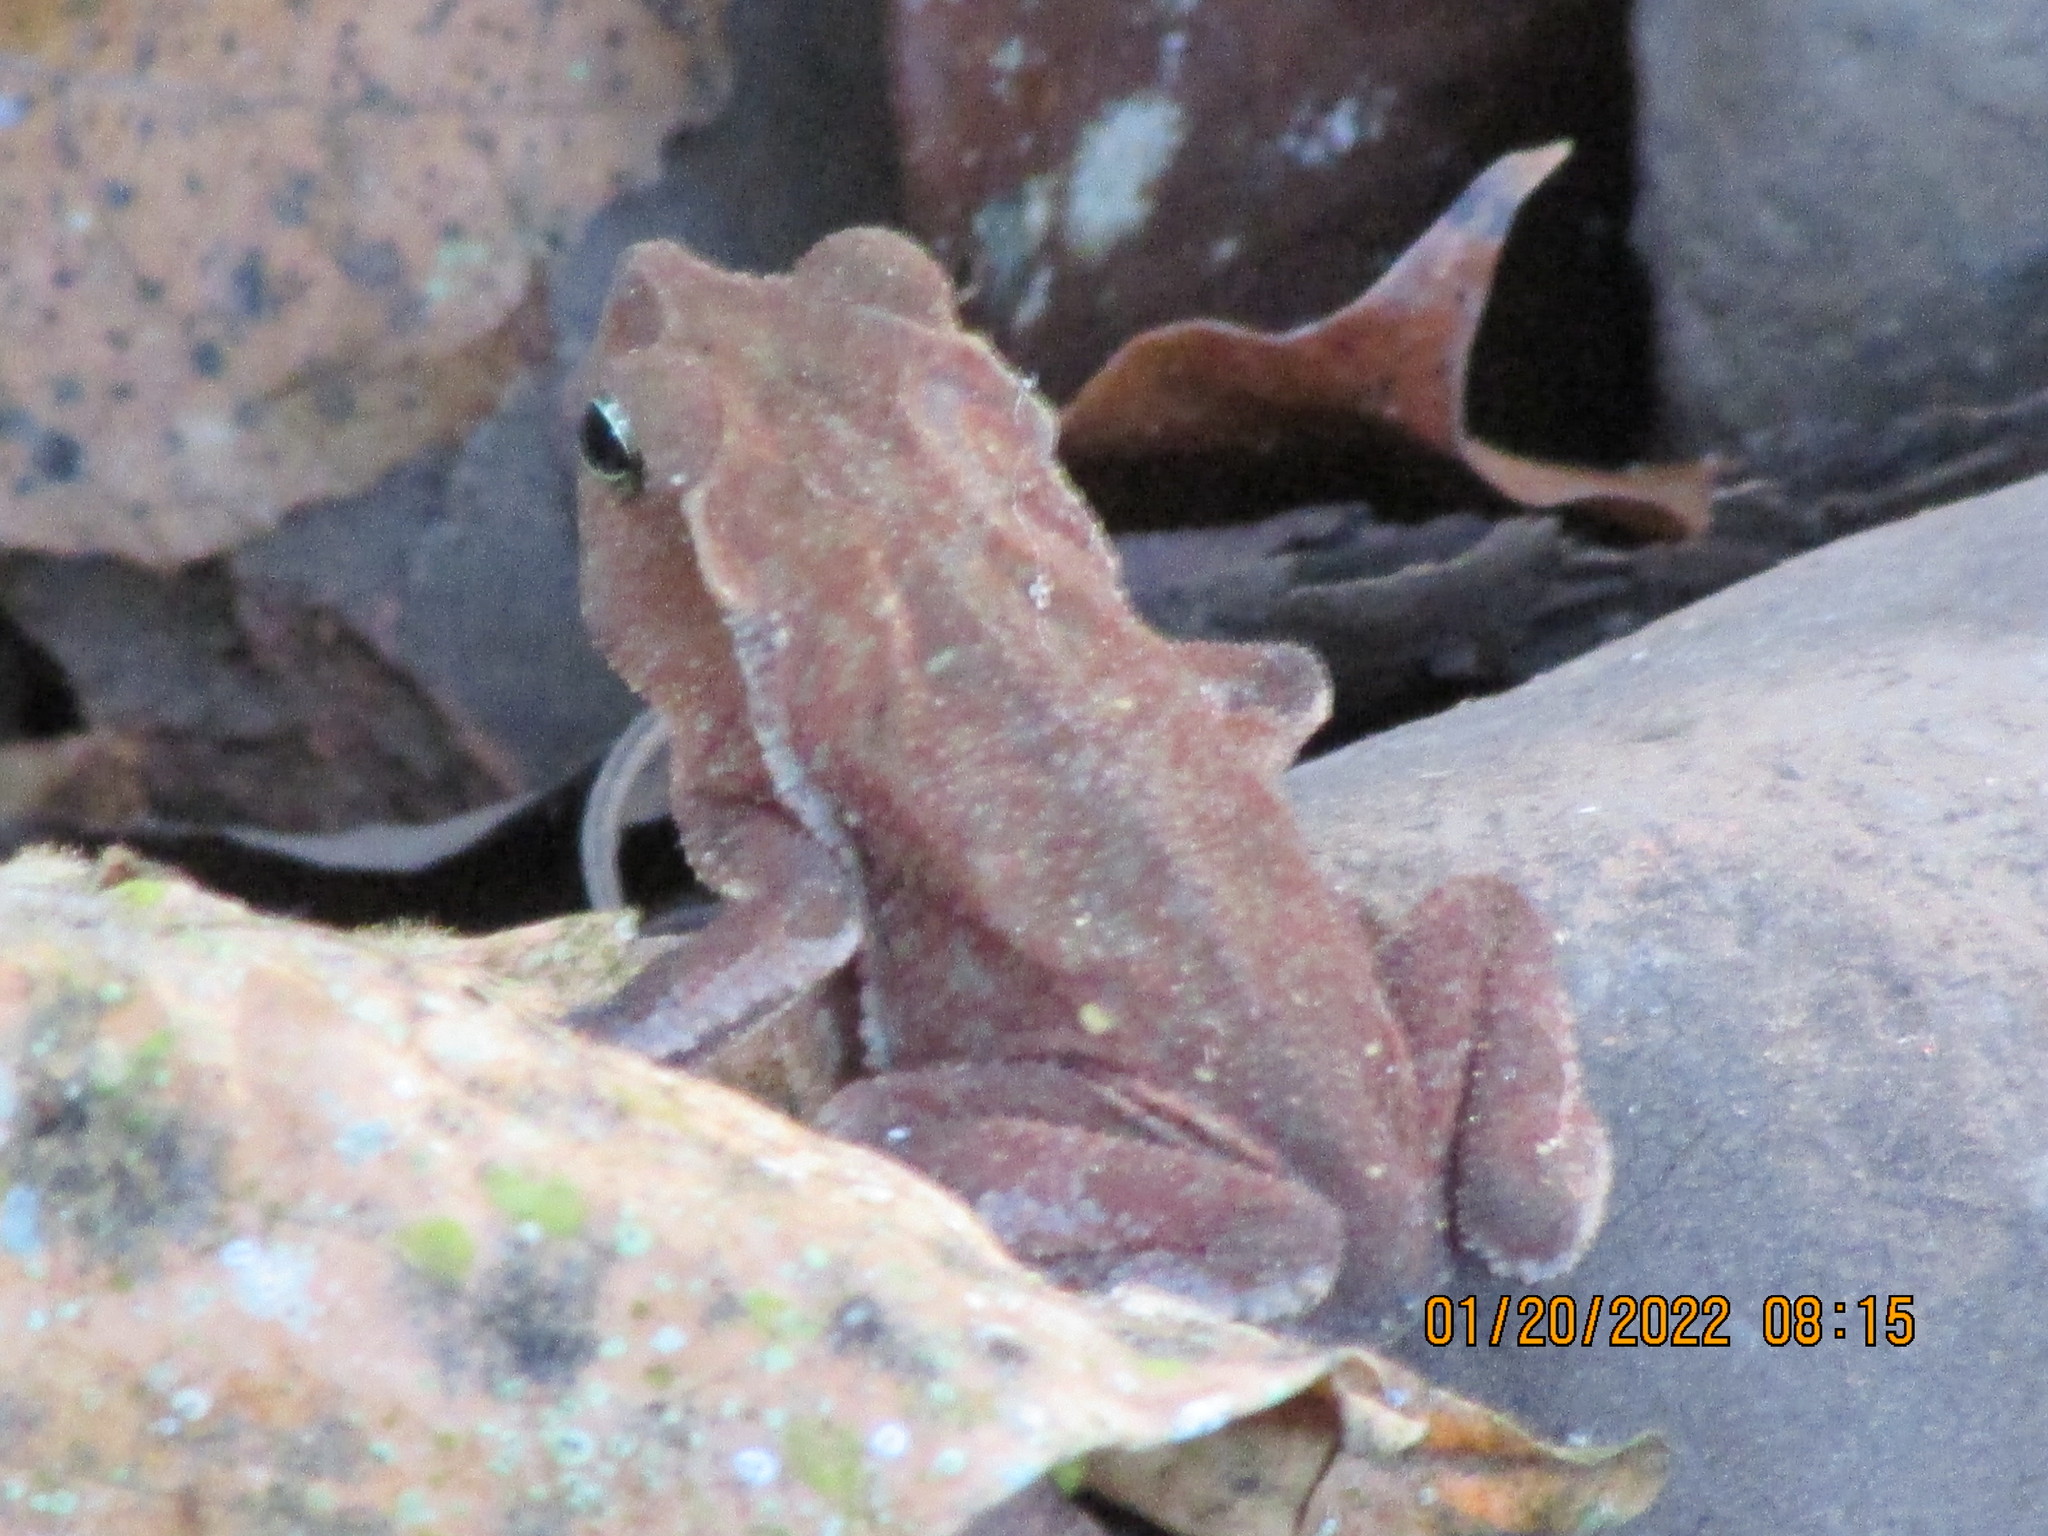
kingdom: Animalia
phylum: Chordata
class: Amphibia
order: Anura
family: Bufonidae
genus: Rhinella
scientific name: Rhinella alata
